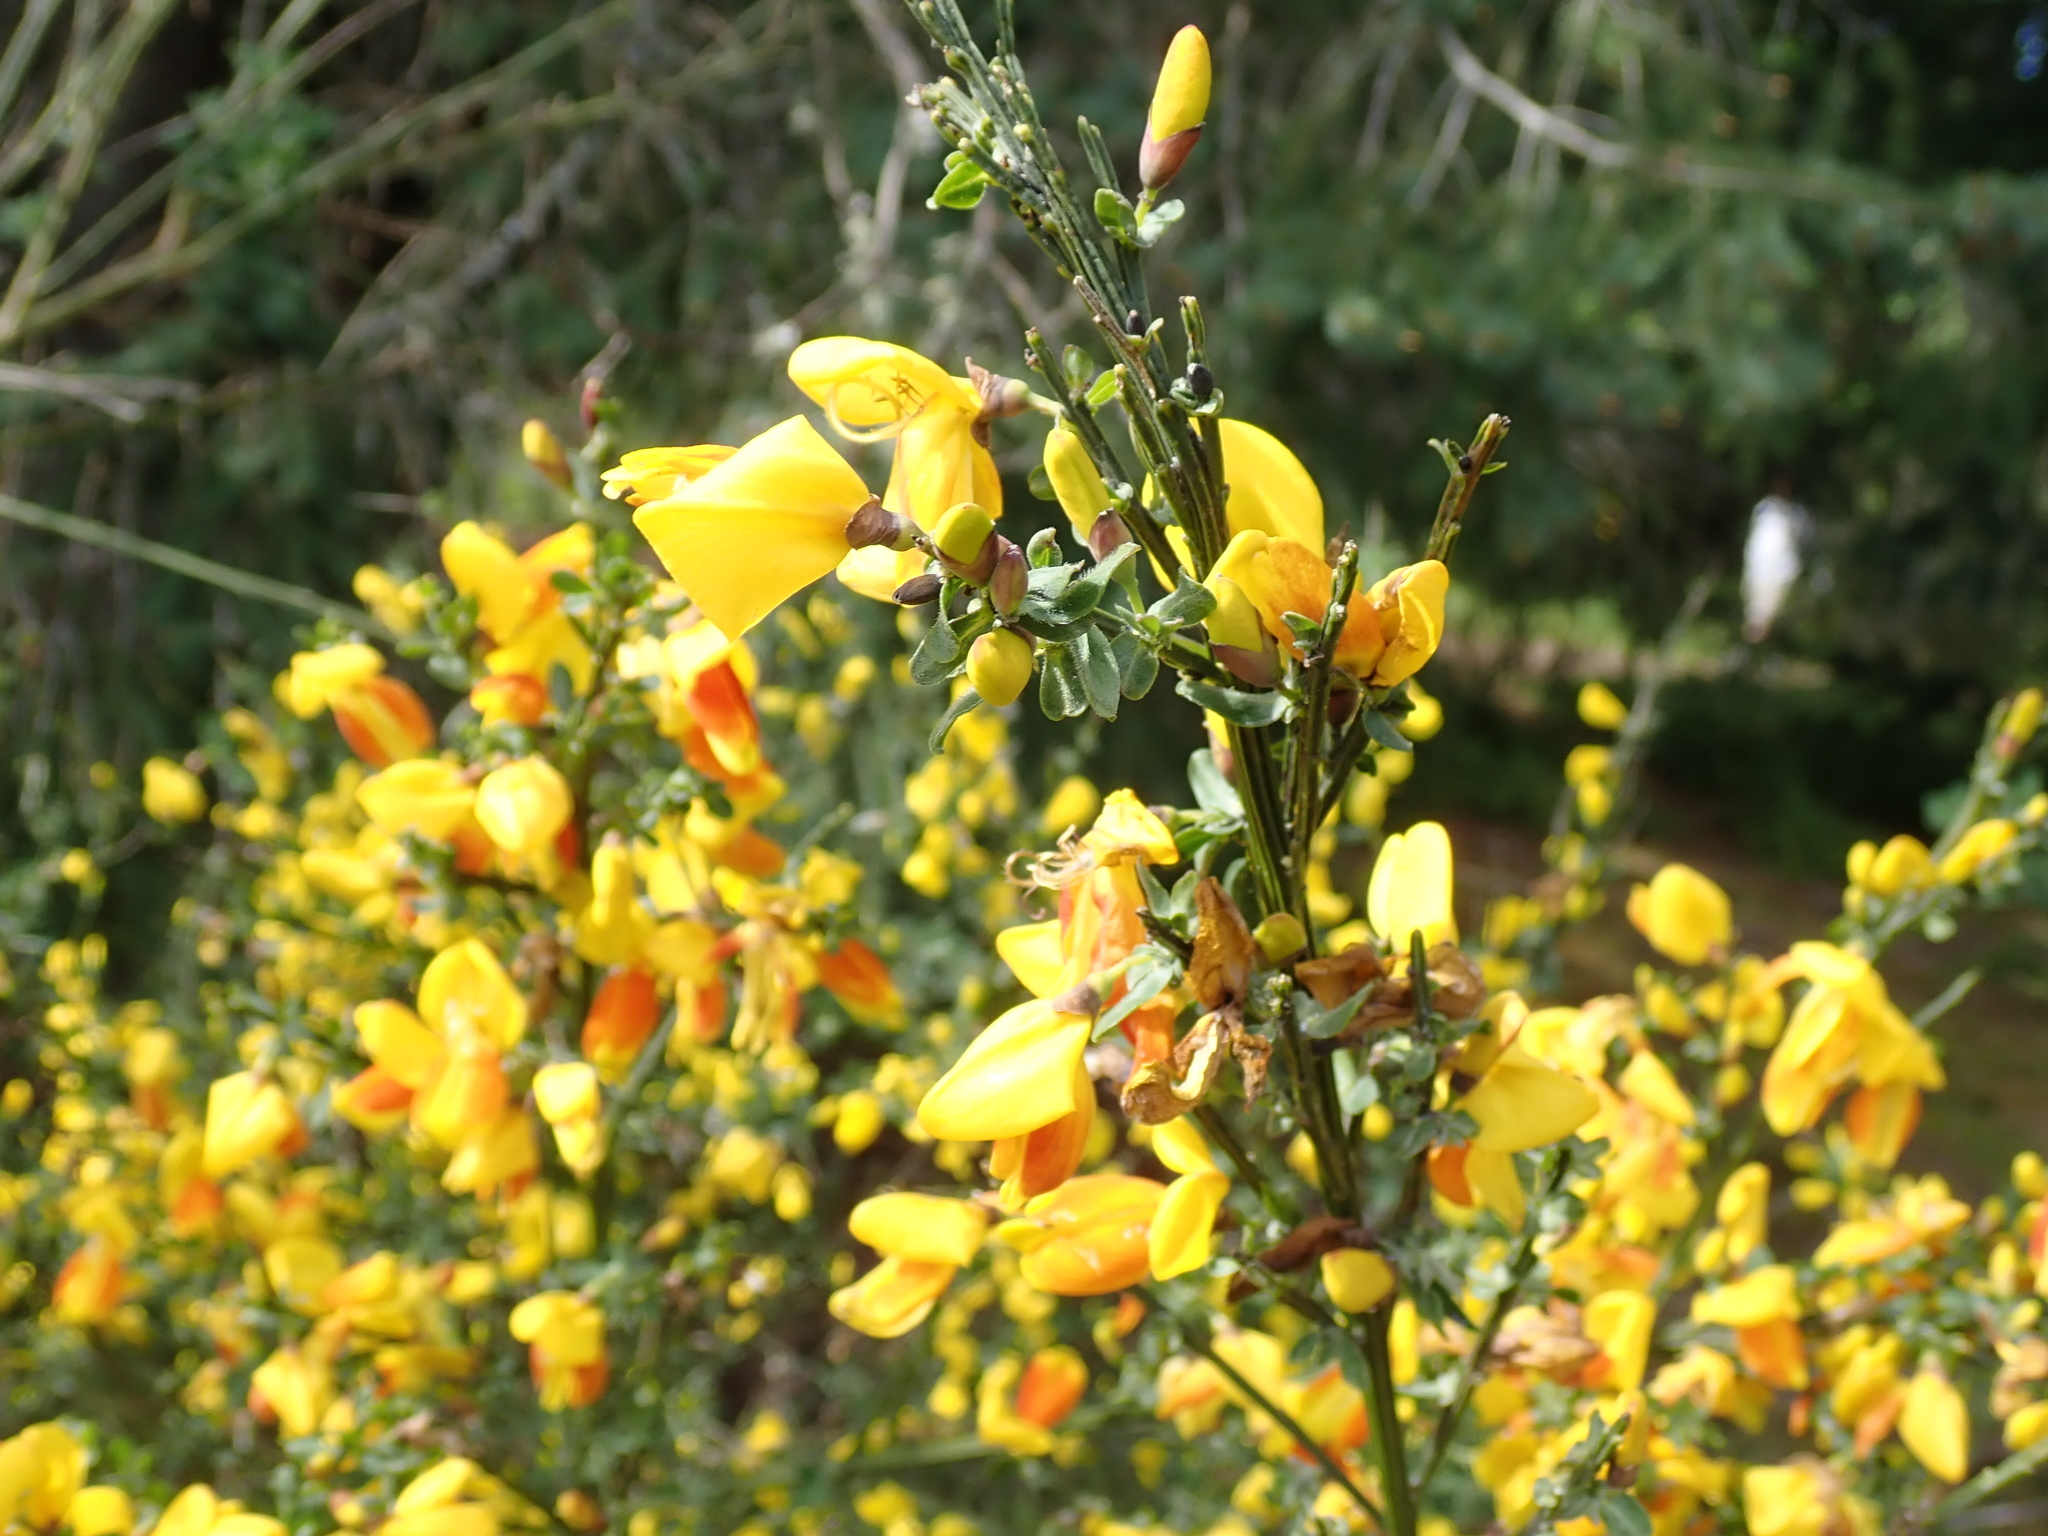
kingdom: Plantae
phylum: Tracheophyta
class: Magnoliopsida
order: Fabales
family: Fabaceae
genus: Cytisus
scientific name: Cytisus scoparius
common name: Scotch broom
